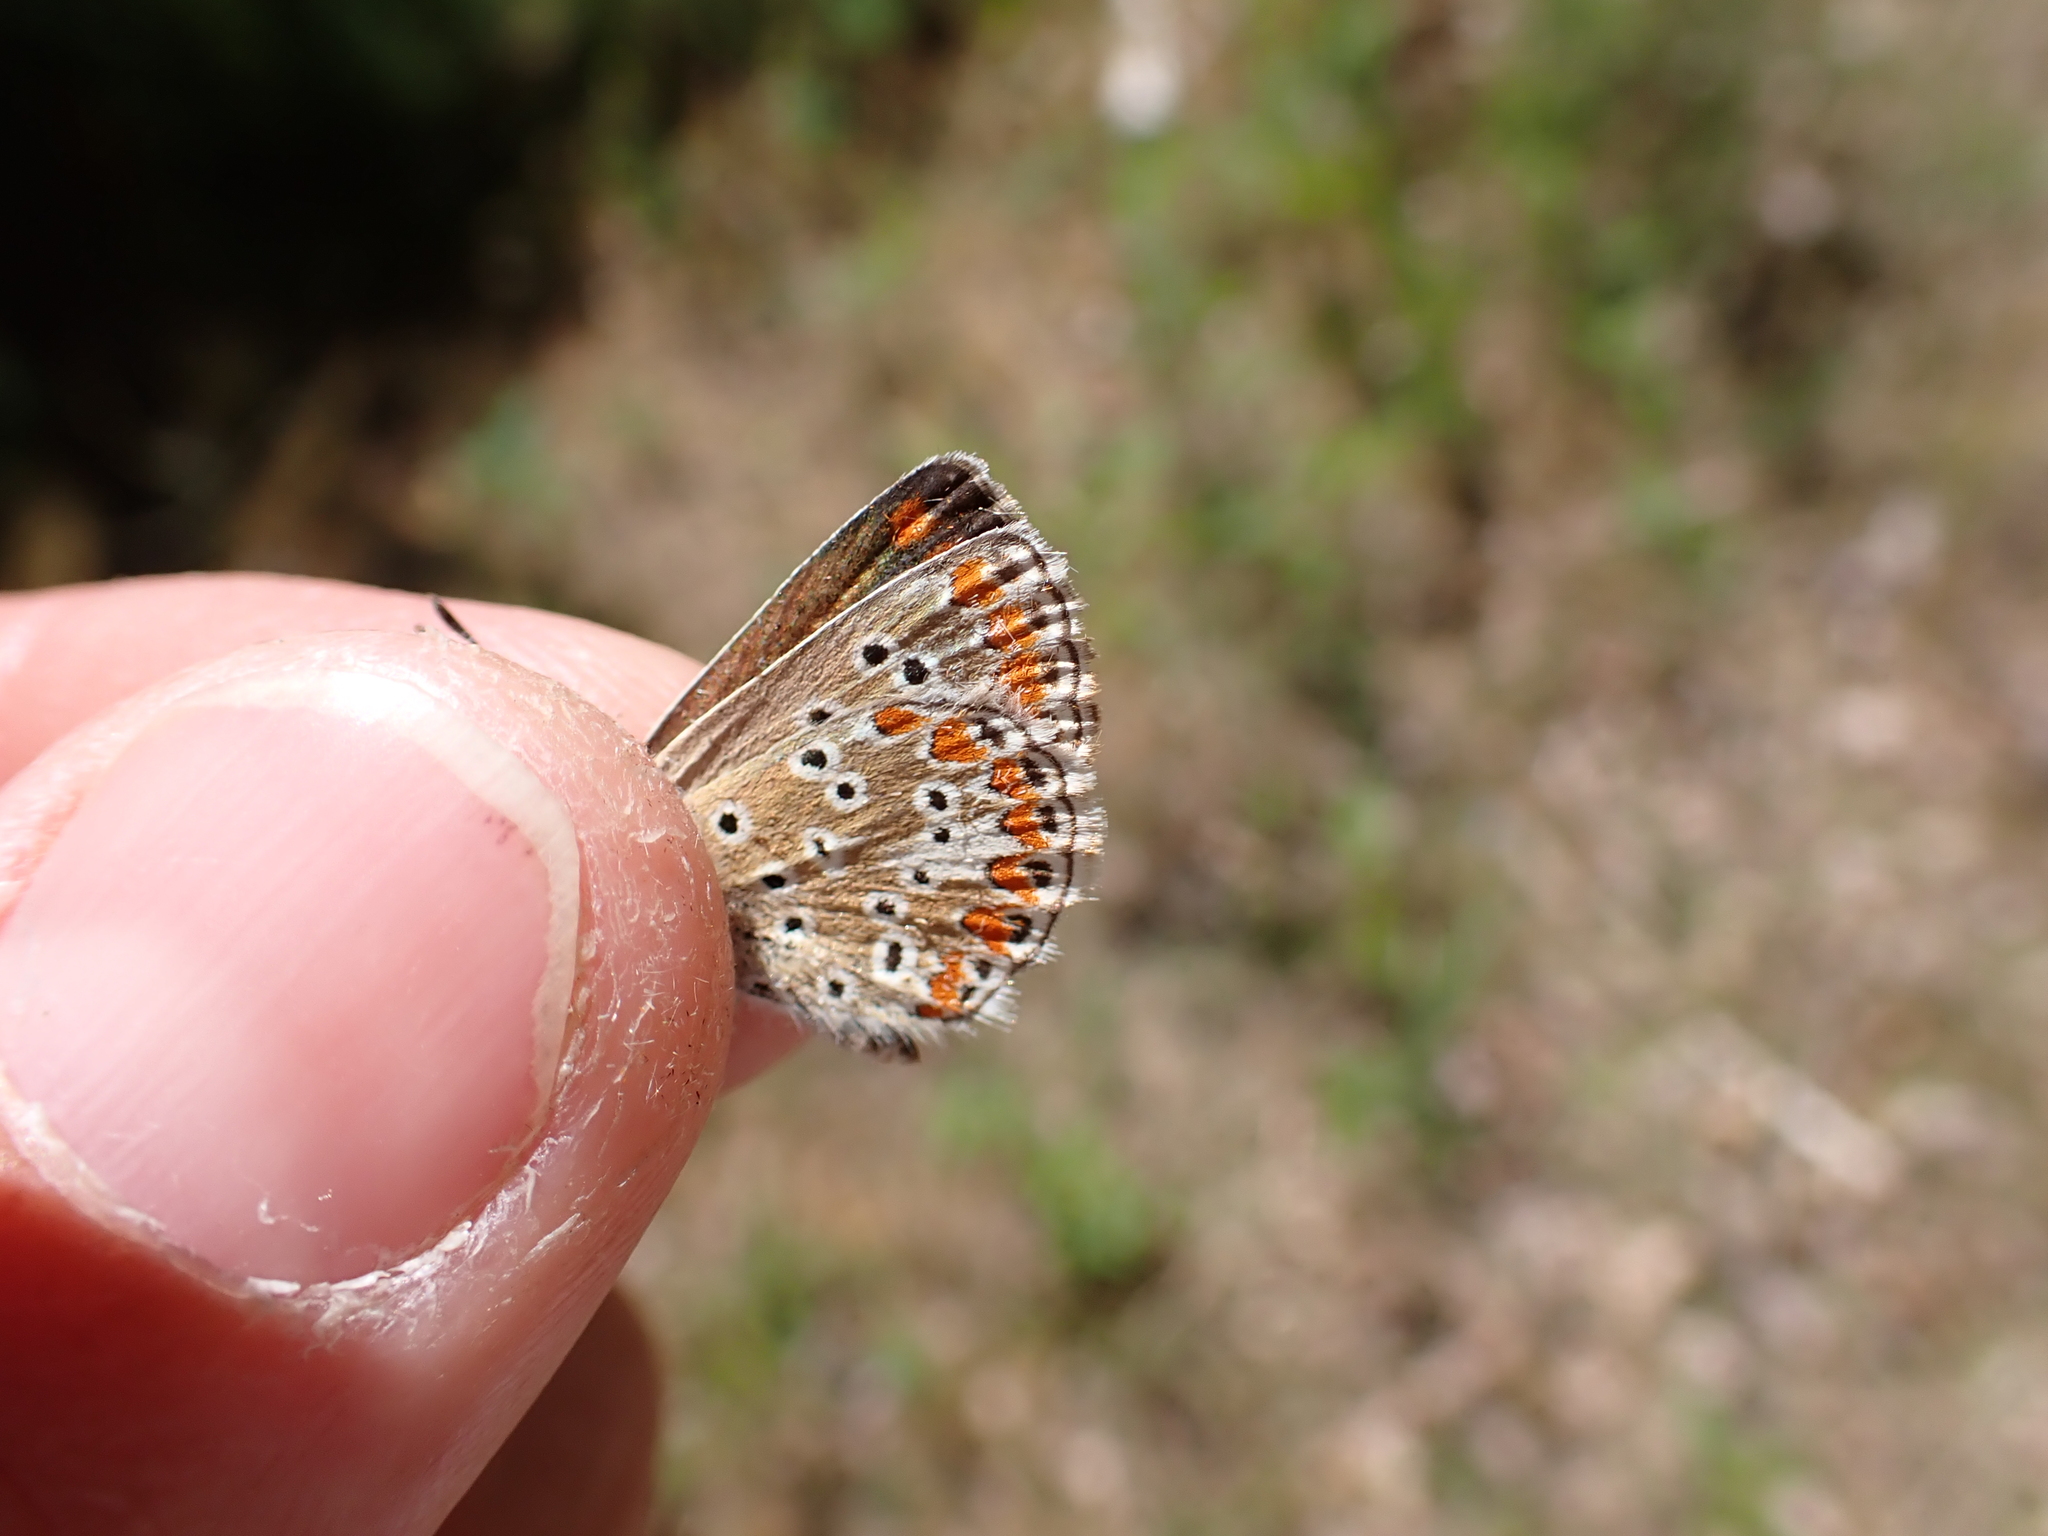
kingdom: Animalia
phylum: Arthropoda
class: Insecta
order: Lepidoptera
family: Lycaenidae
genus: Aricia
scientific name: Aricia agestis
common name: Brown argus
